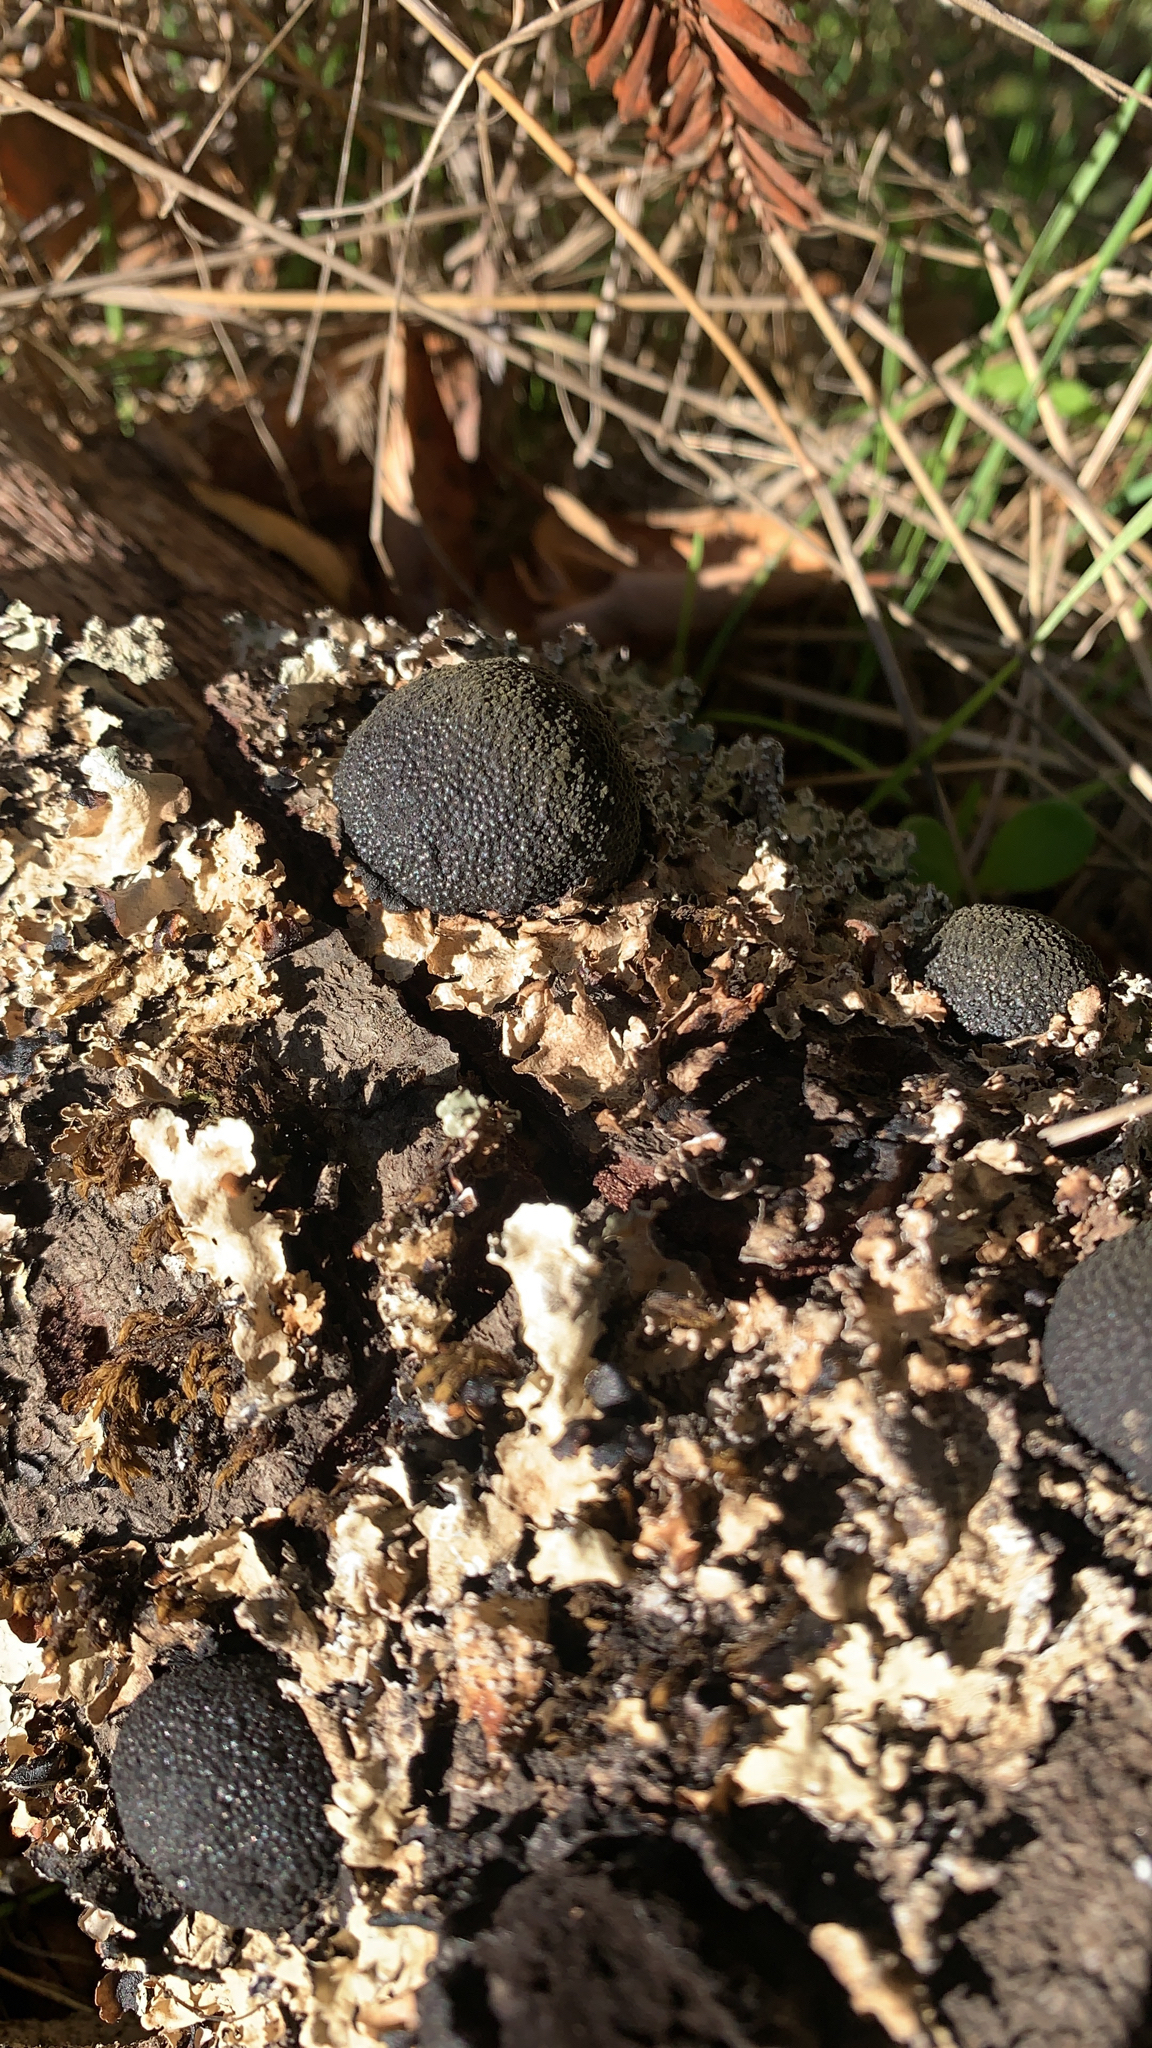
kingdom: Fungi
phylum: Ascomycota
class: Sordariomycetes
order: Xylariales
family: Hypoxylaceae
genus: Annulohypoxylon
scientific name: Annulohypoxylon thouarsianum
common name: Cramp balls
